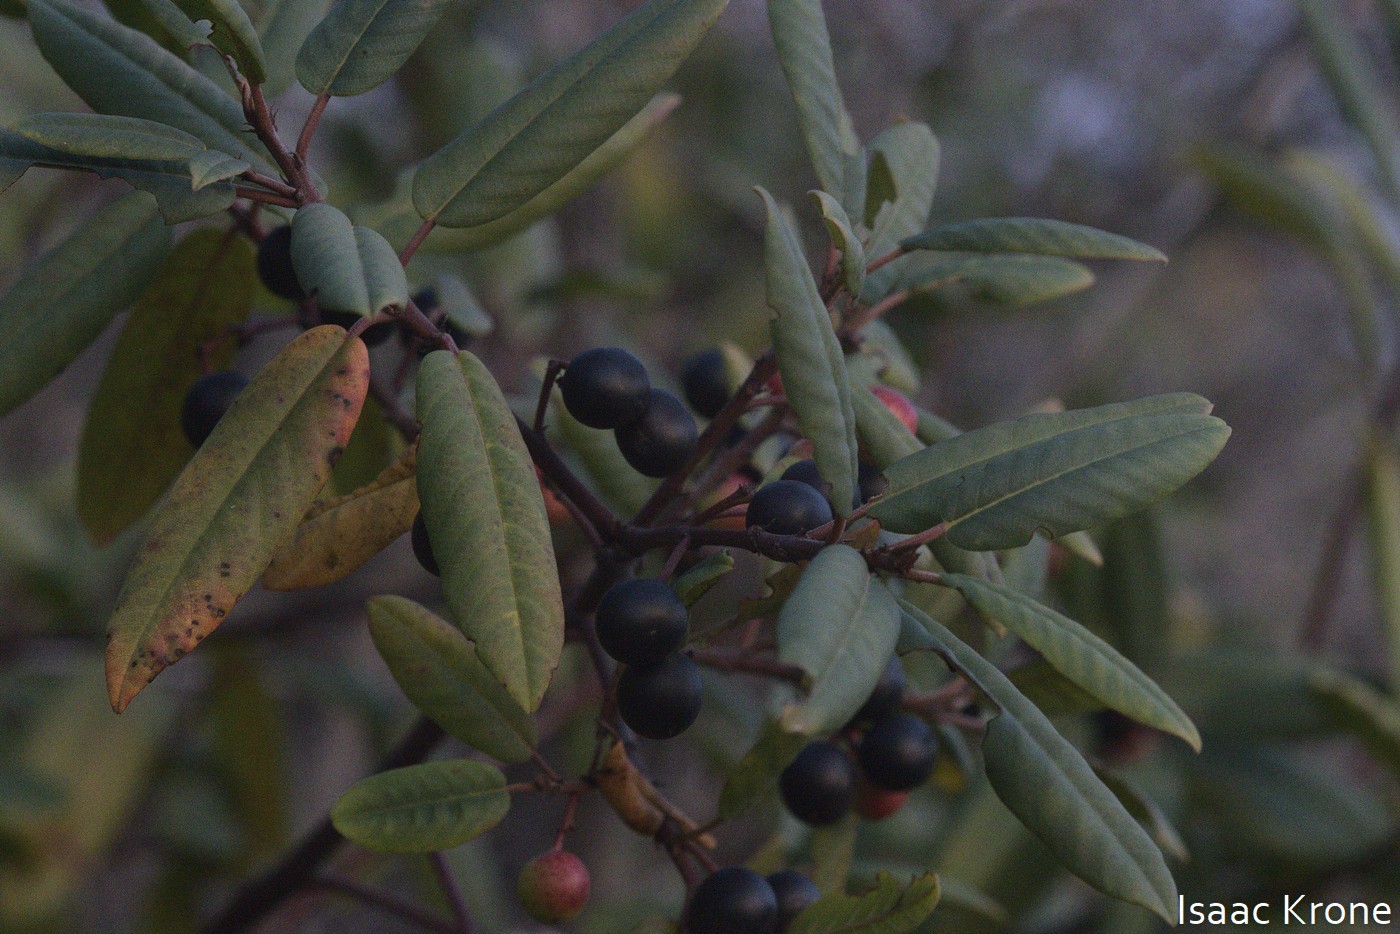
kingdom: Plantae
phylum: Tracheophyta
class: Magnoliopsida
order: Rosales
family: Rhamnaceae
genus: Frangula
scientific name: Frangula californica
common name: California buckthorn
